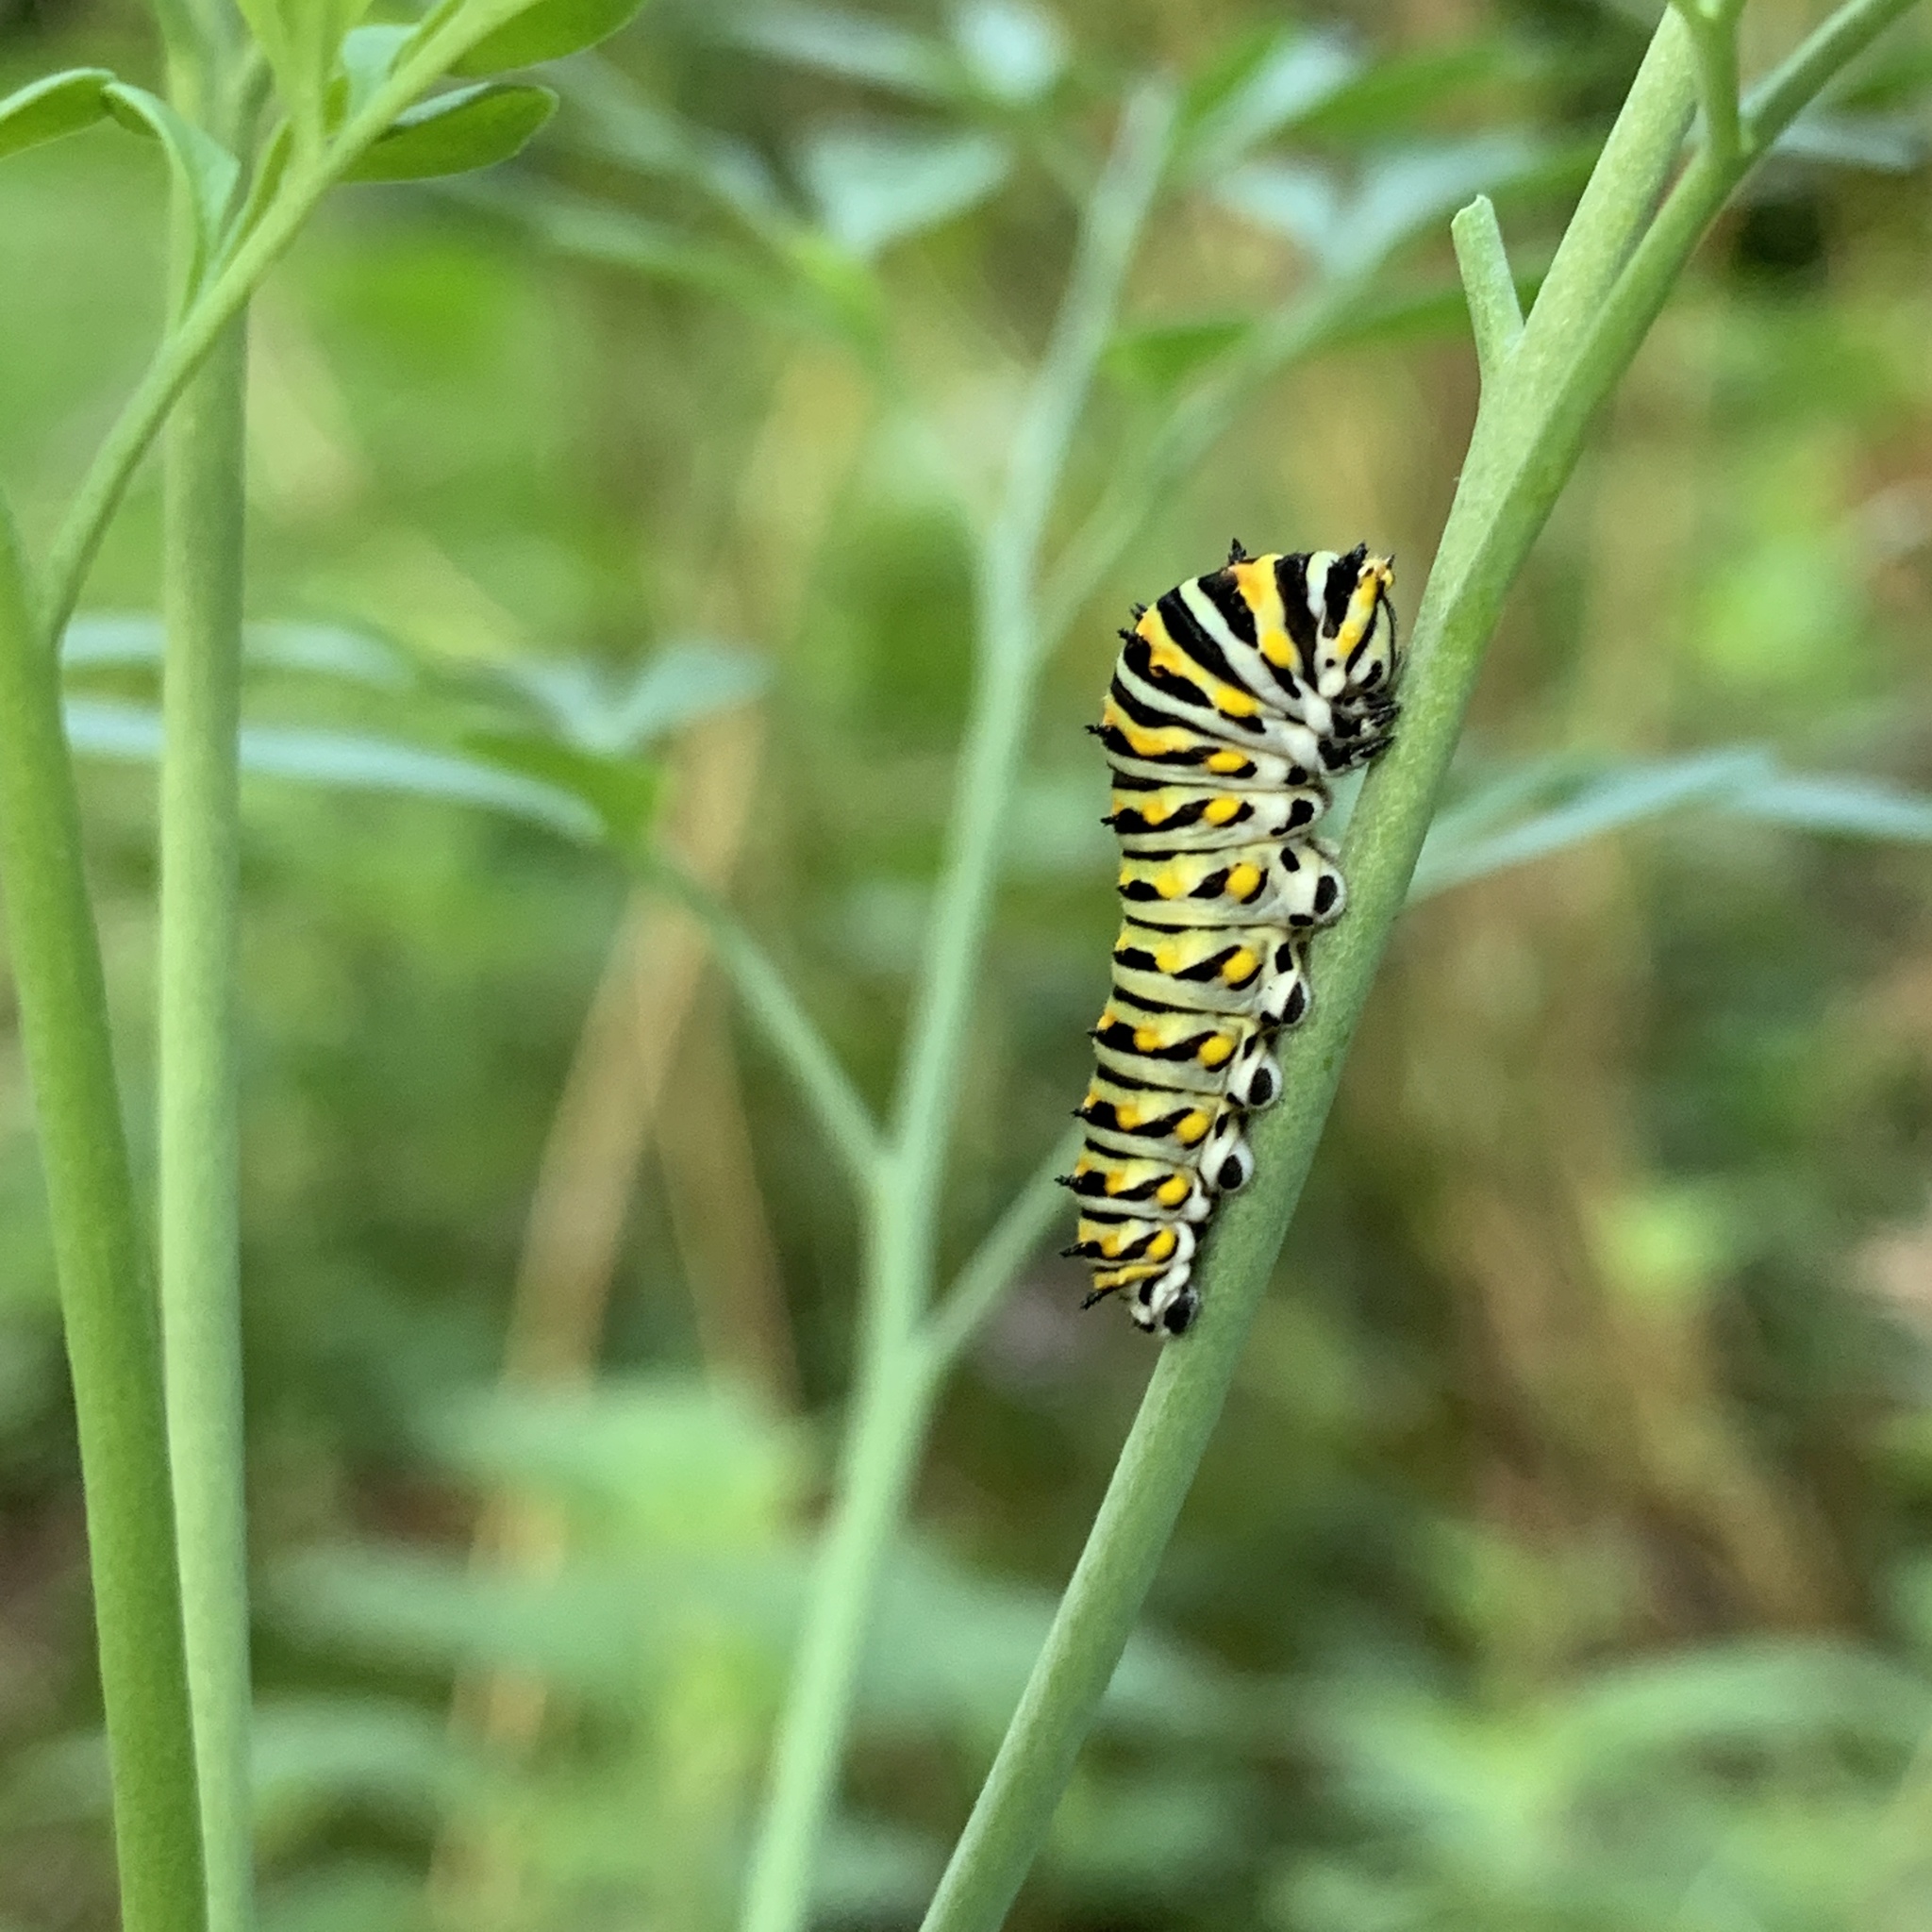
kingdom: Animalia
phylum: Arthropoda
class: Insecta
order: Lepidoptera
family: Papilionidae
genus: Papilio
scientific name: Papilio polyxenes
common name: Black swallowtail
